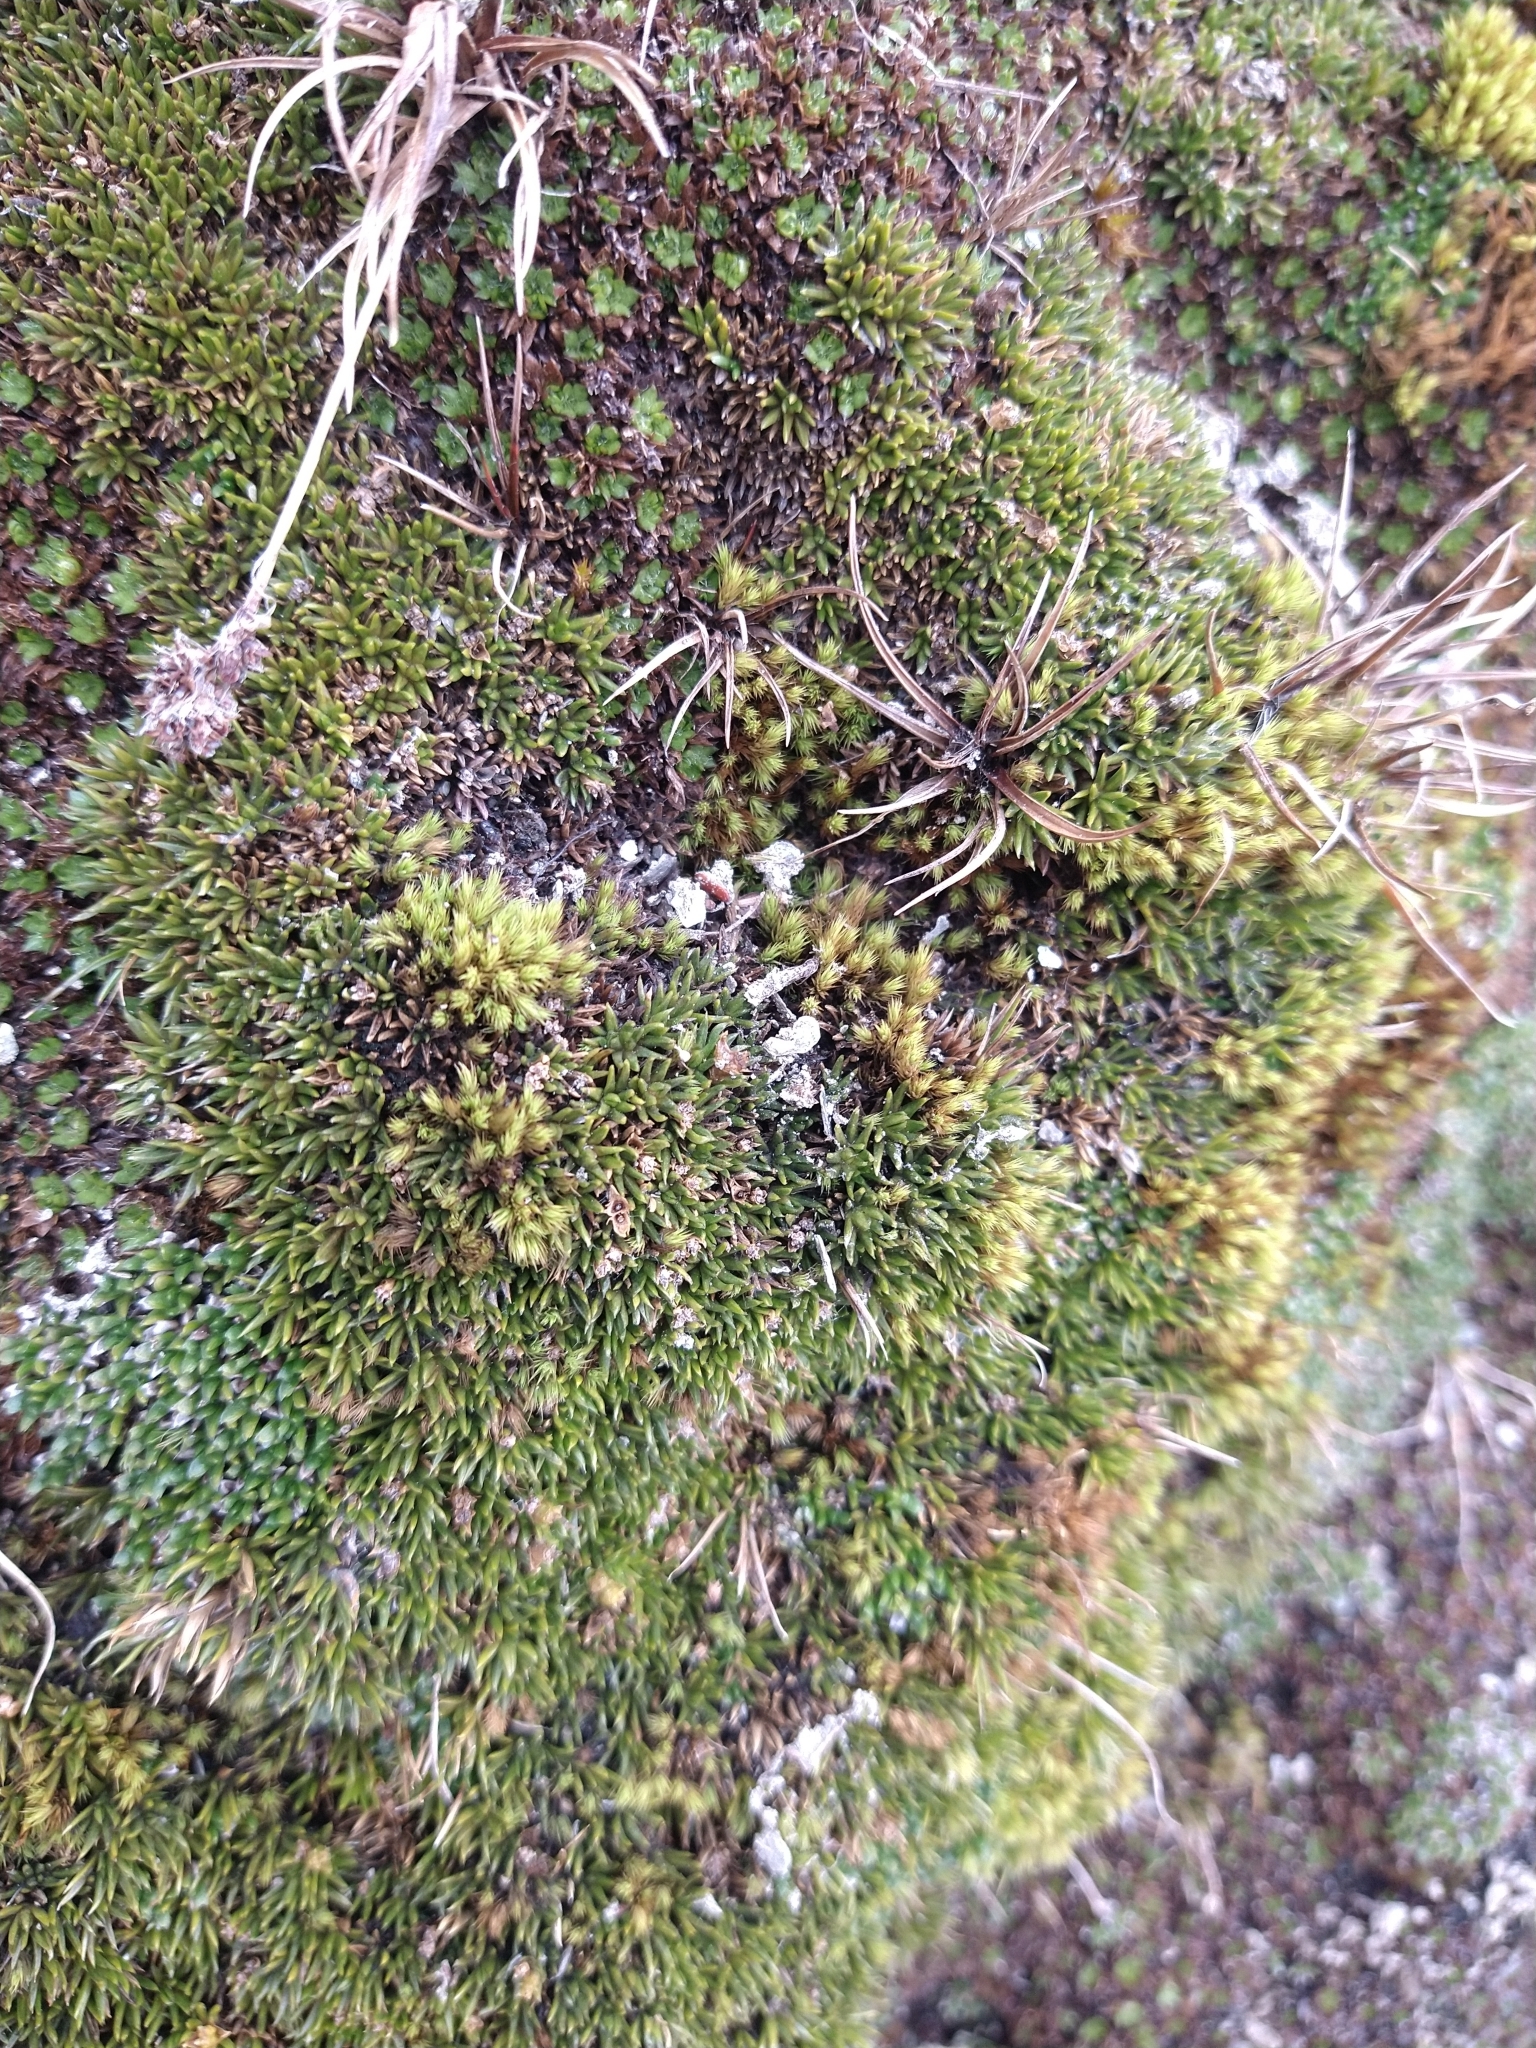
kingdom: Plantae
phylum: Tracheophyta
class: Magnoliopsida
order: Apiales
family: Apiaceae
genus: Bolax
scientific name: Bolax gummifera
